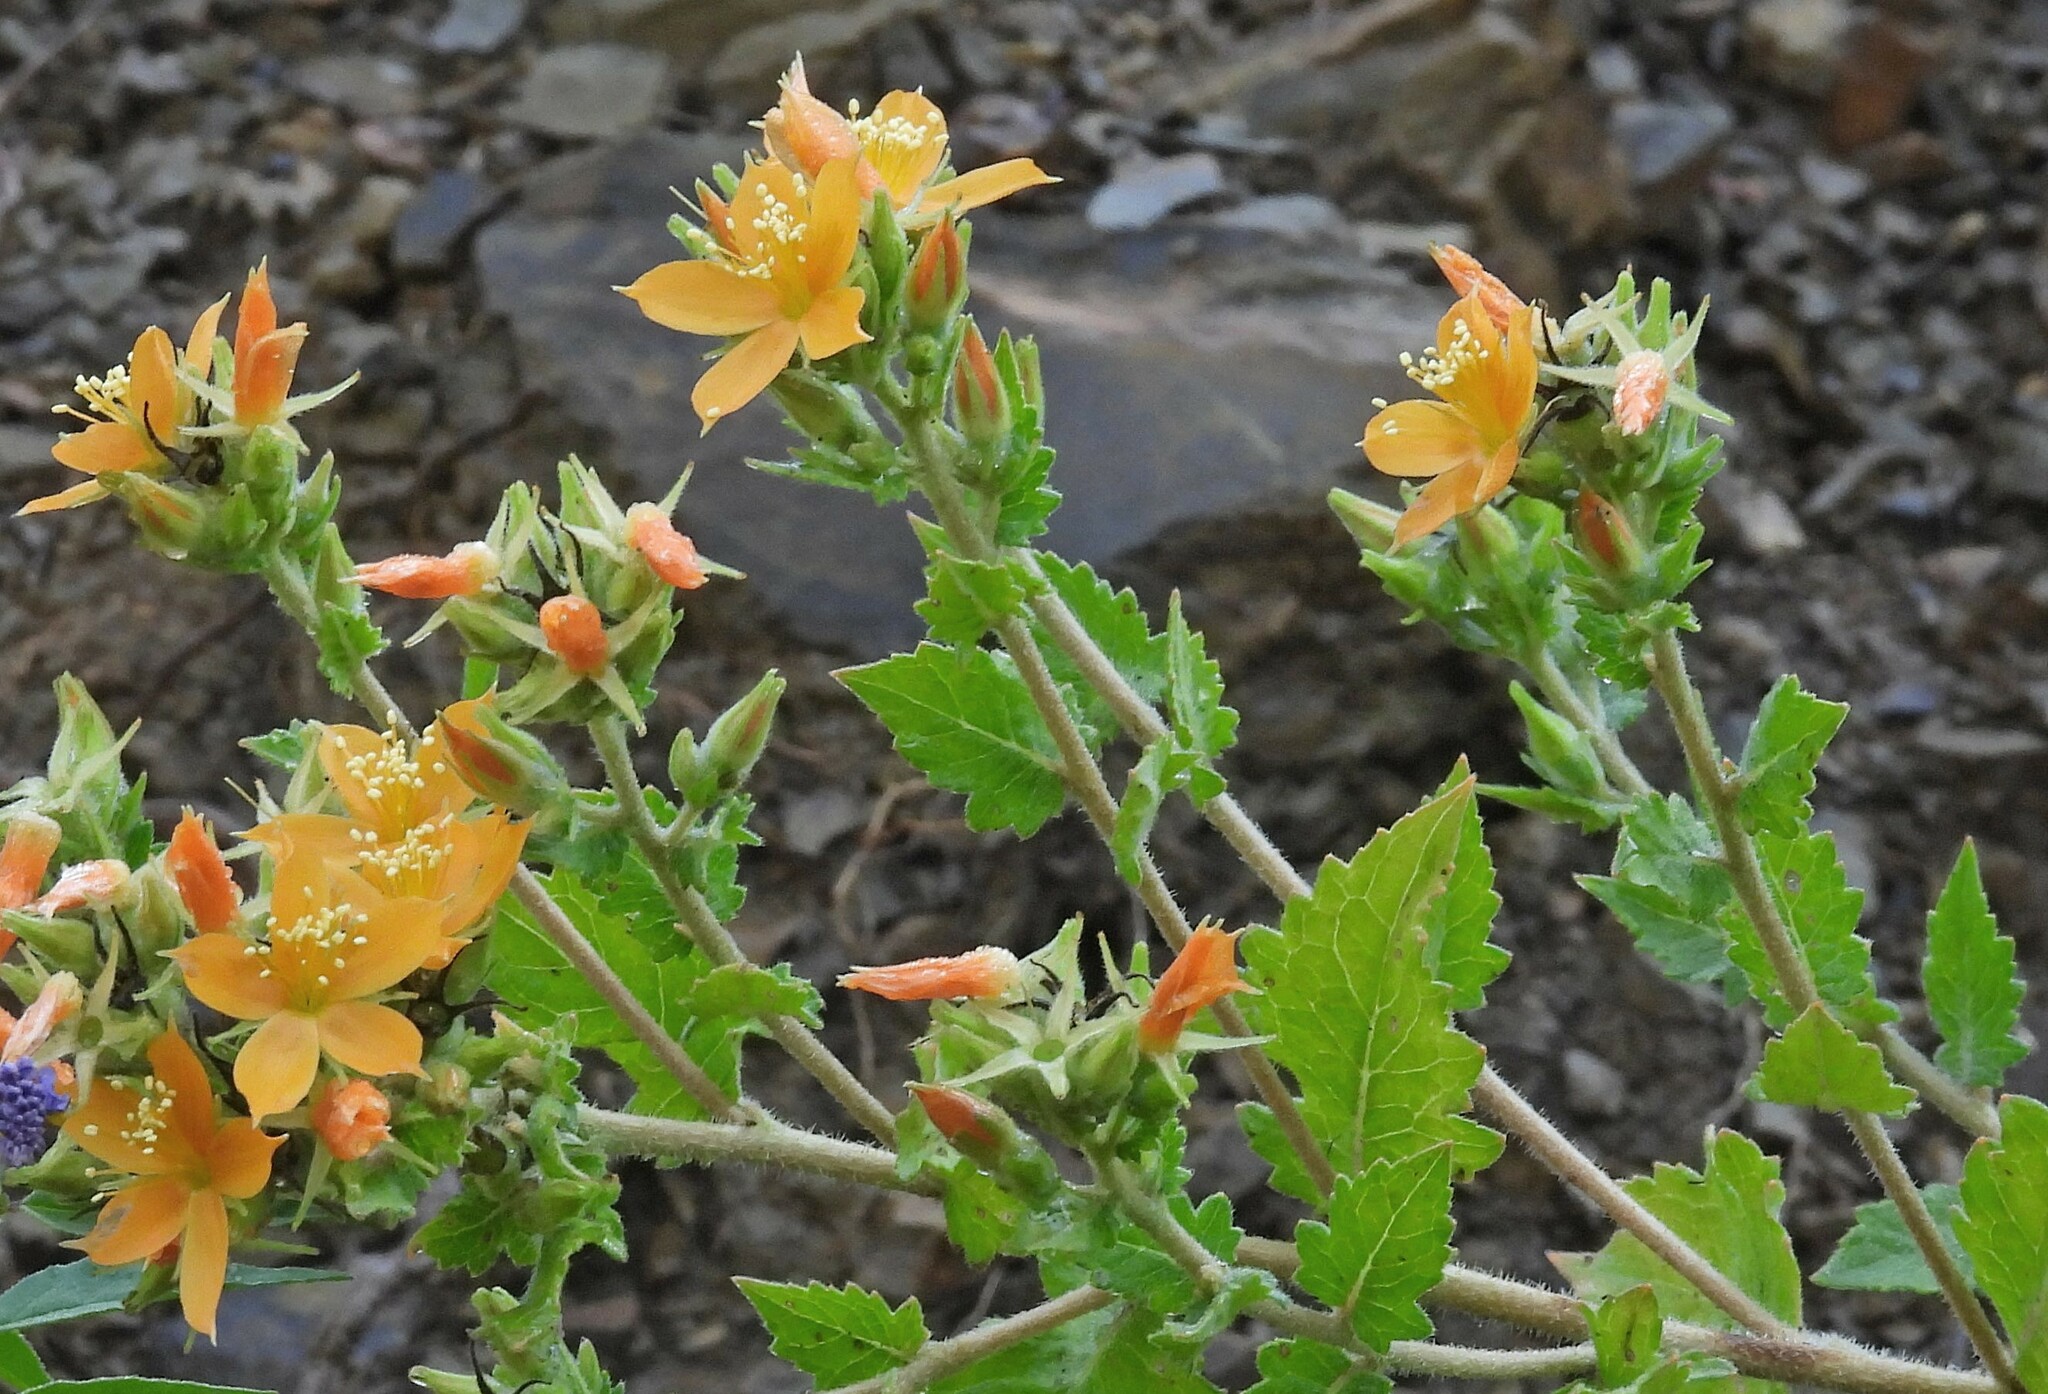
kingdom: Plantae
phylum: Tracheophyta
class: Magnoliopsida
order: Cornales
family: Loasaceae
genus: Mentzelia
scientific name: Mentzelia parvifolia
